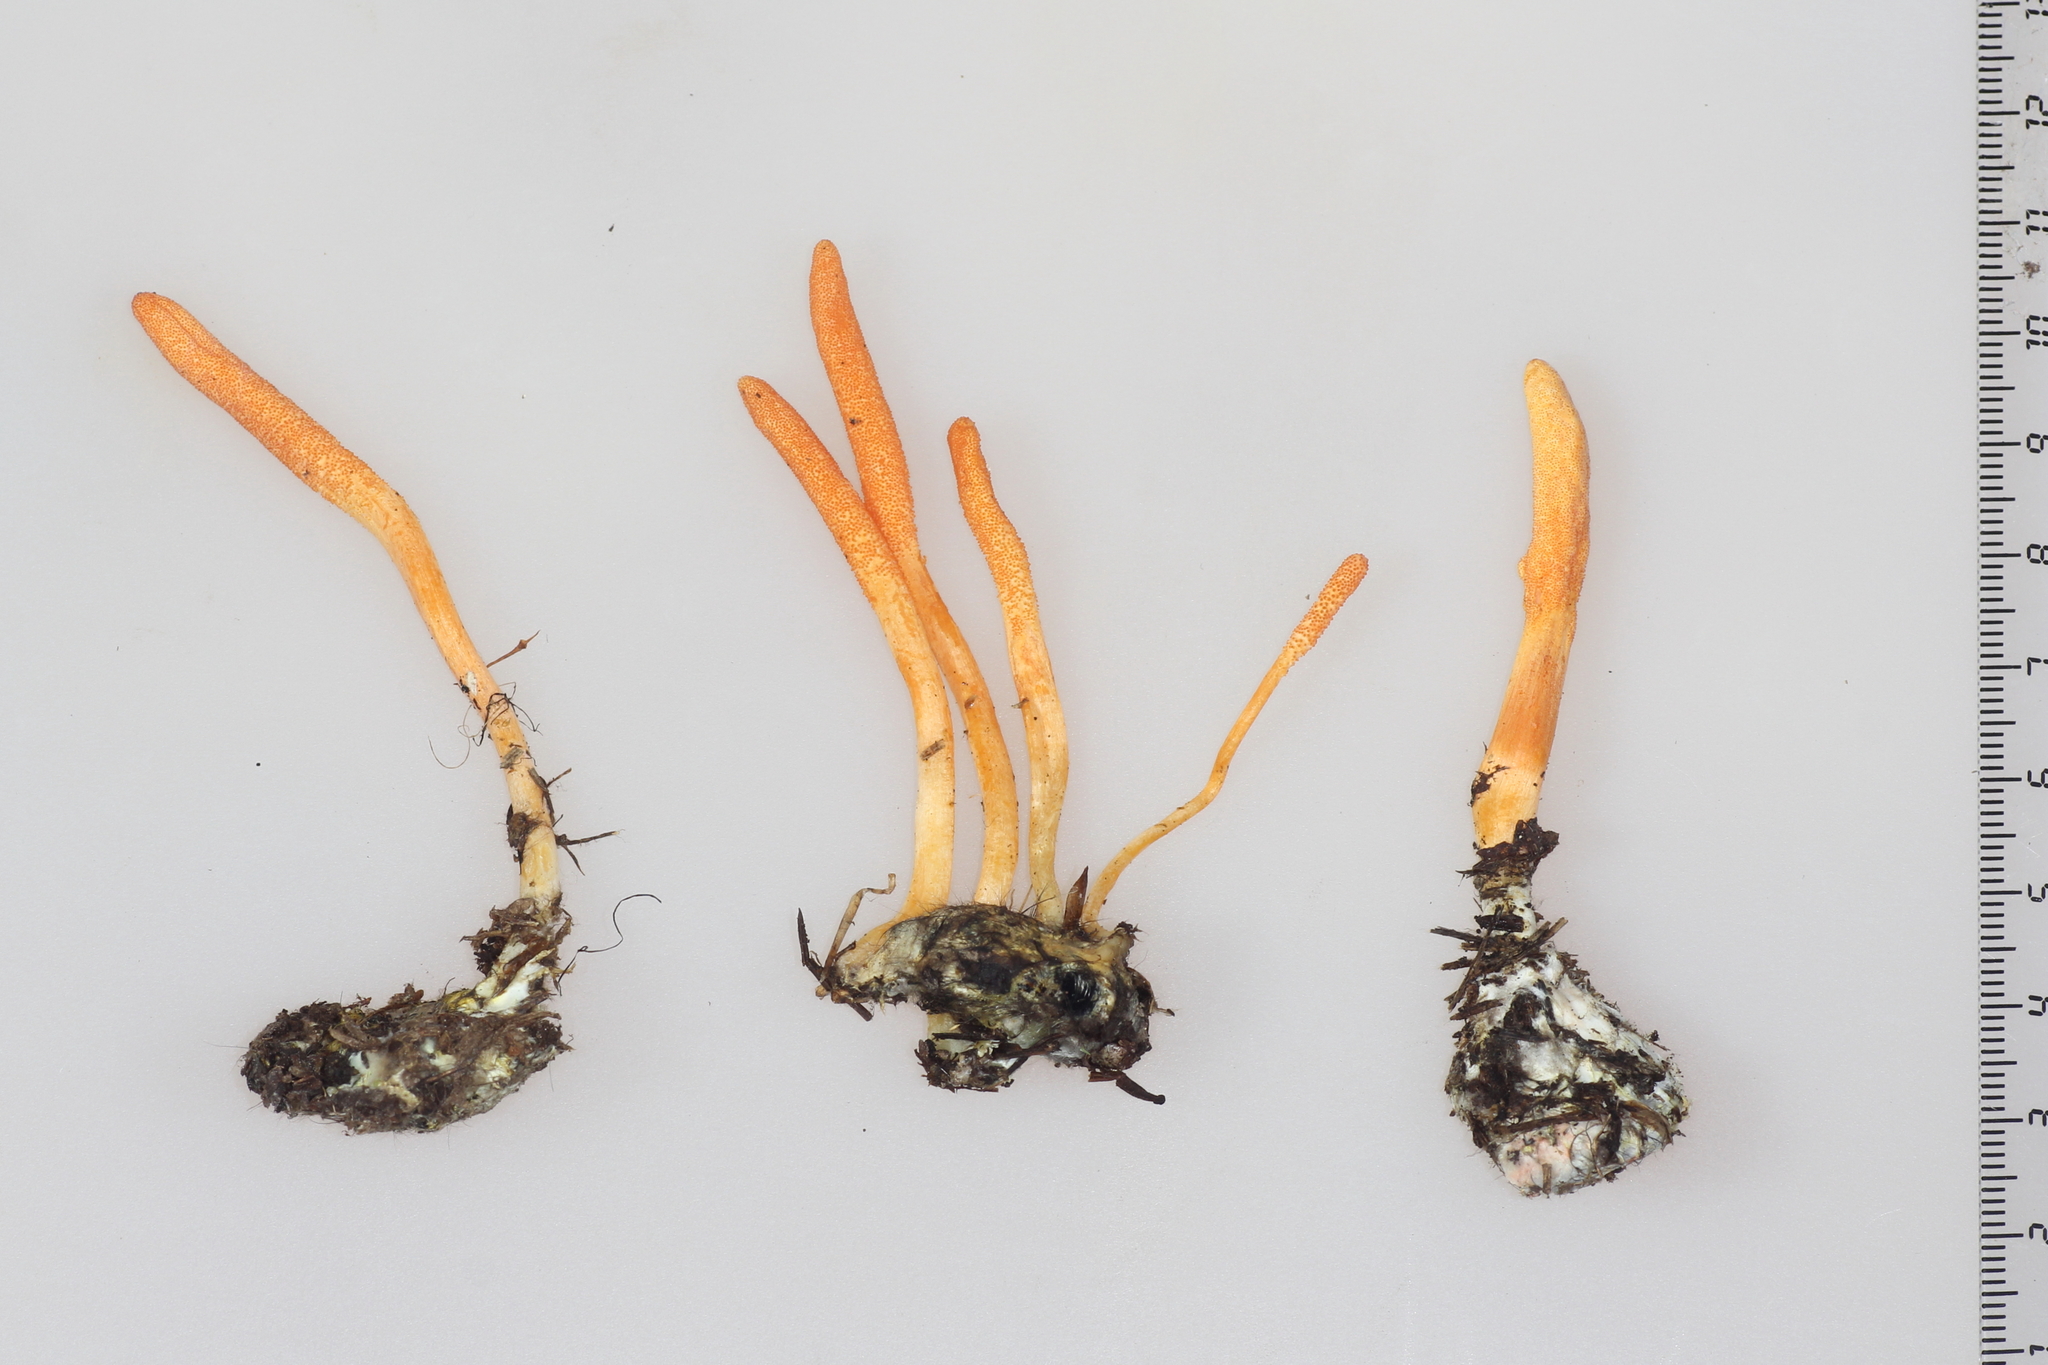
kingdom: Fungi
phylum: Ascomycota
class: Sordariomycetes
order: Hypocreales
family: Cordycipitaceae
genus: Cordyceps
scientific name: Cordyceps militaris
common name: Scarlet caterpillar fungus
